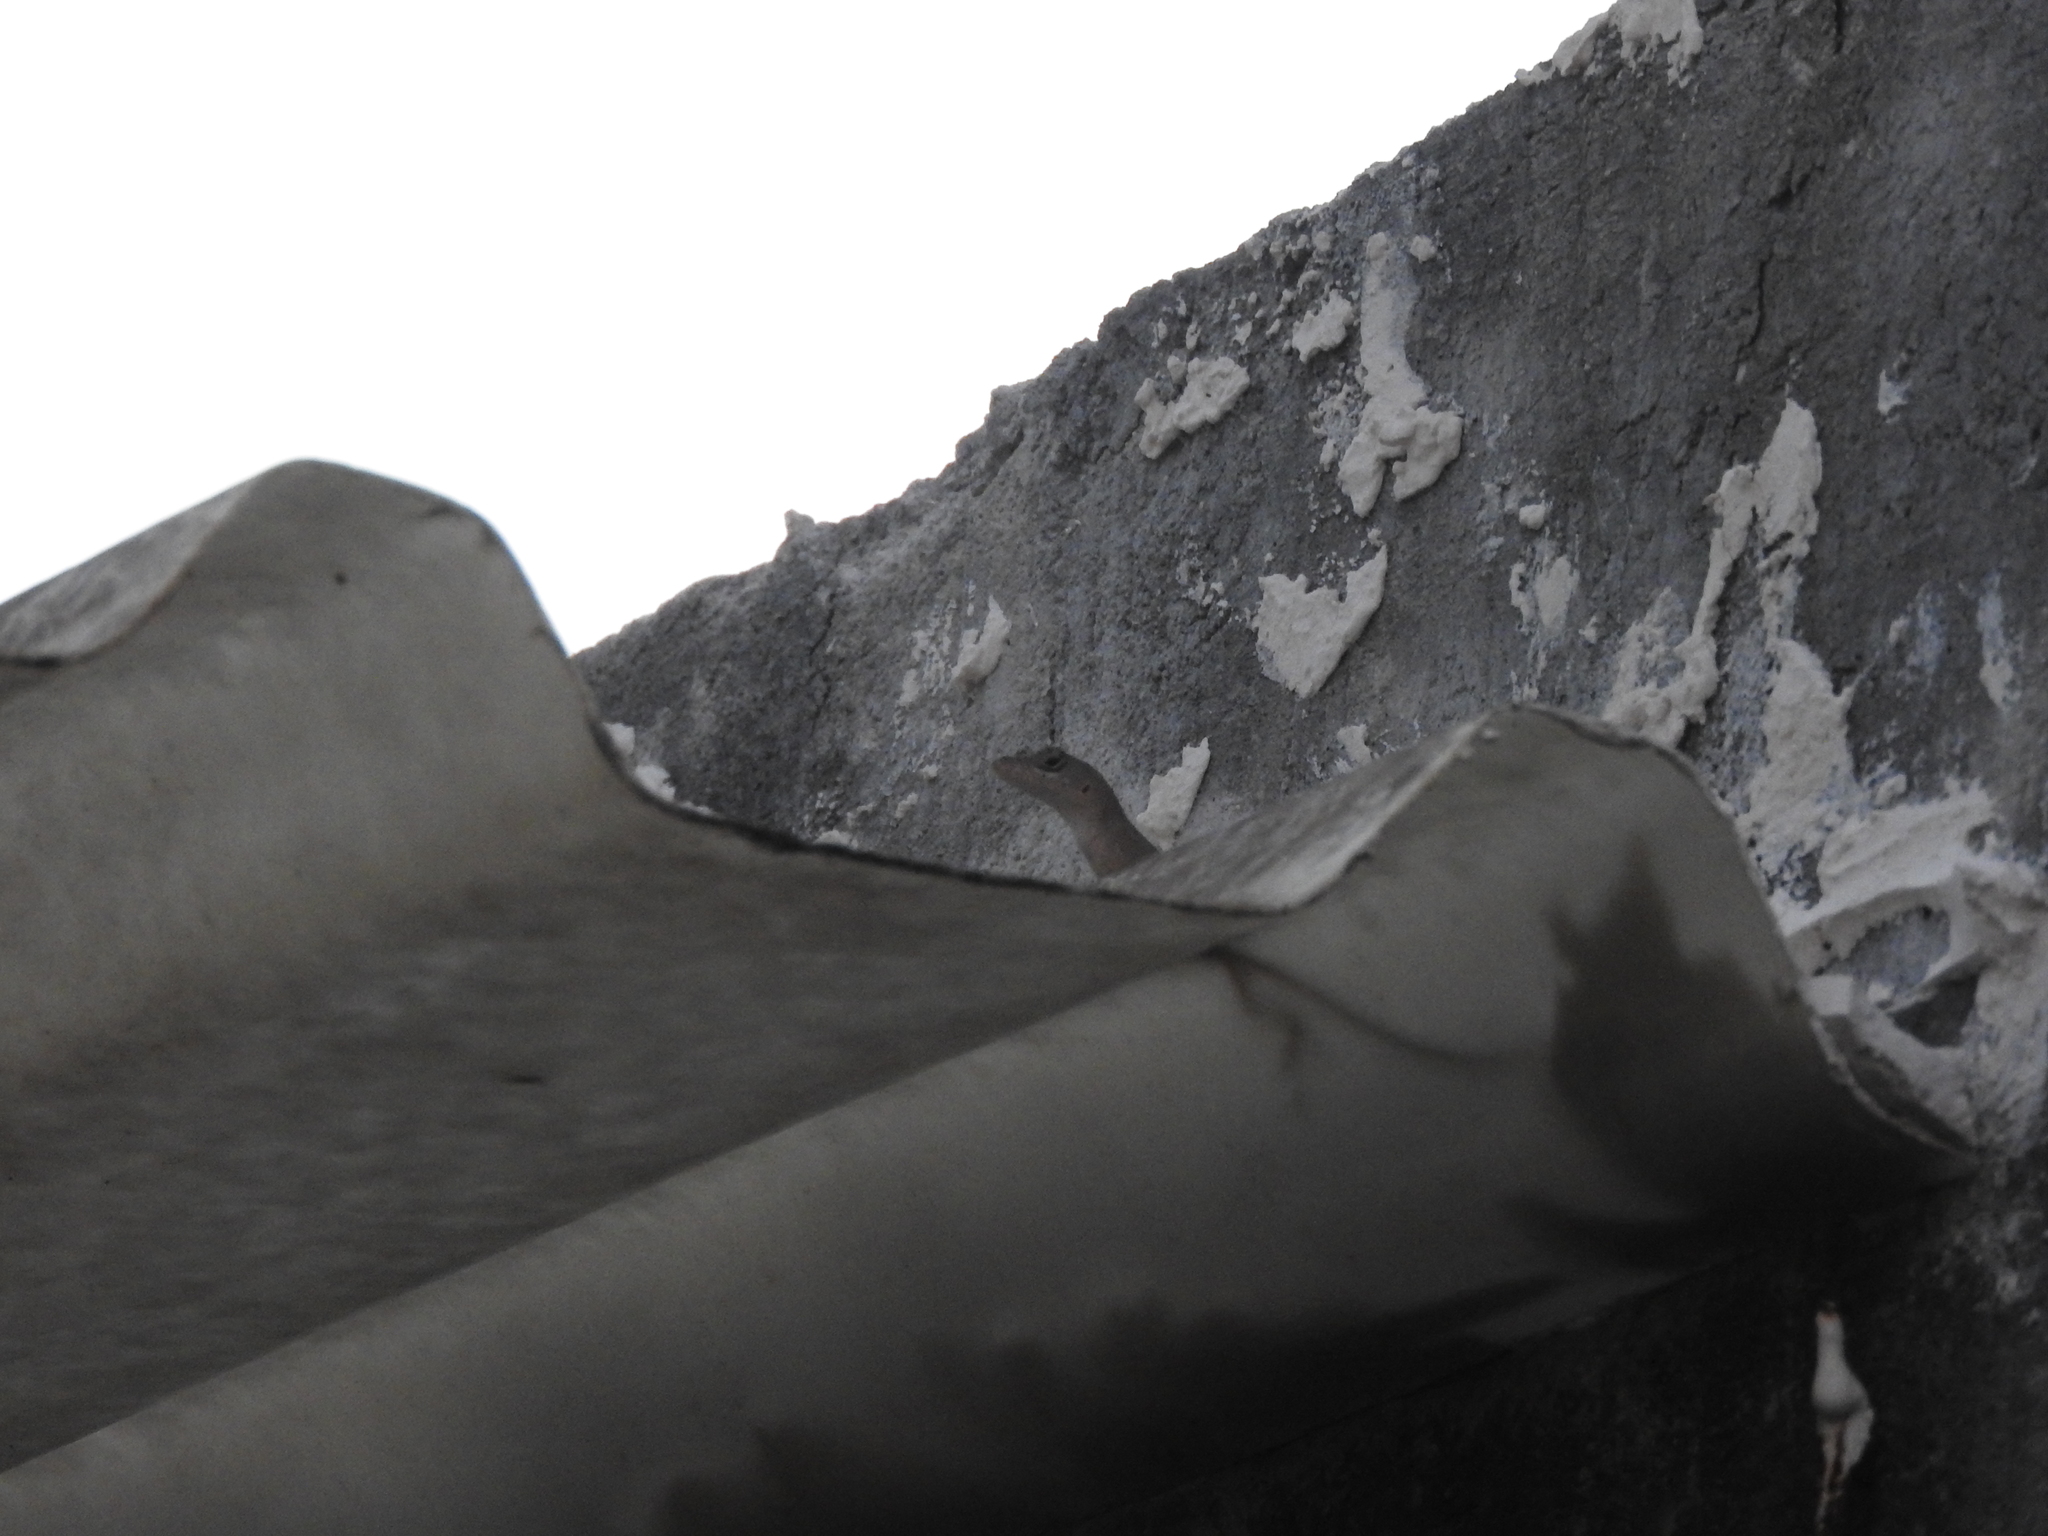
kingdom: Animalia
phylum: Chordata
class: Squamata
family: Dactyloidae
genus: Anolis
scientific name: Anolis sagrei
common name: Brown anole
